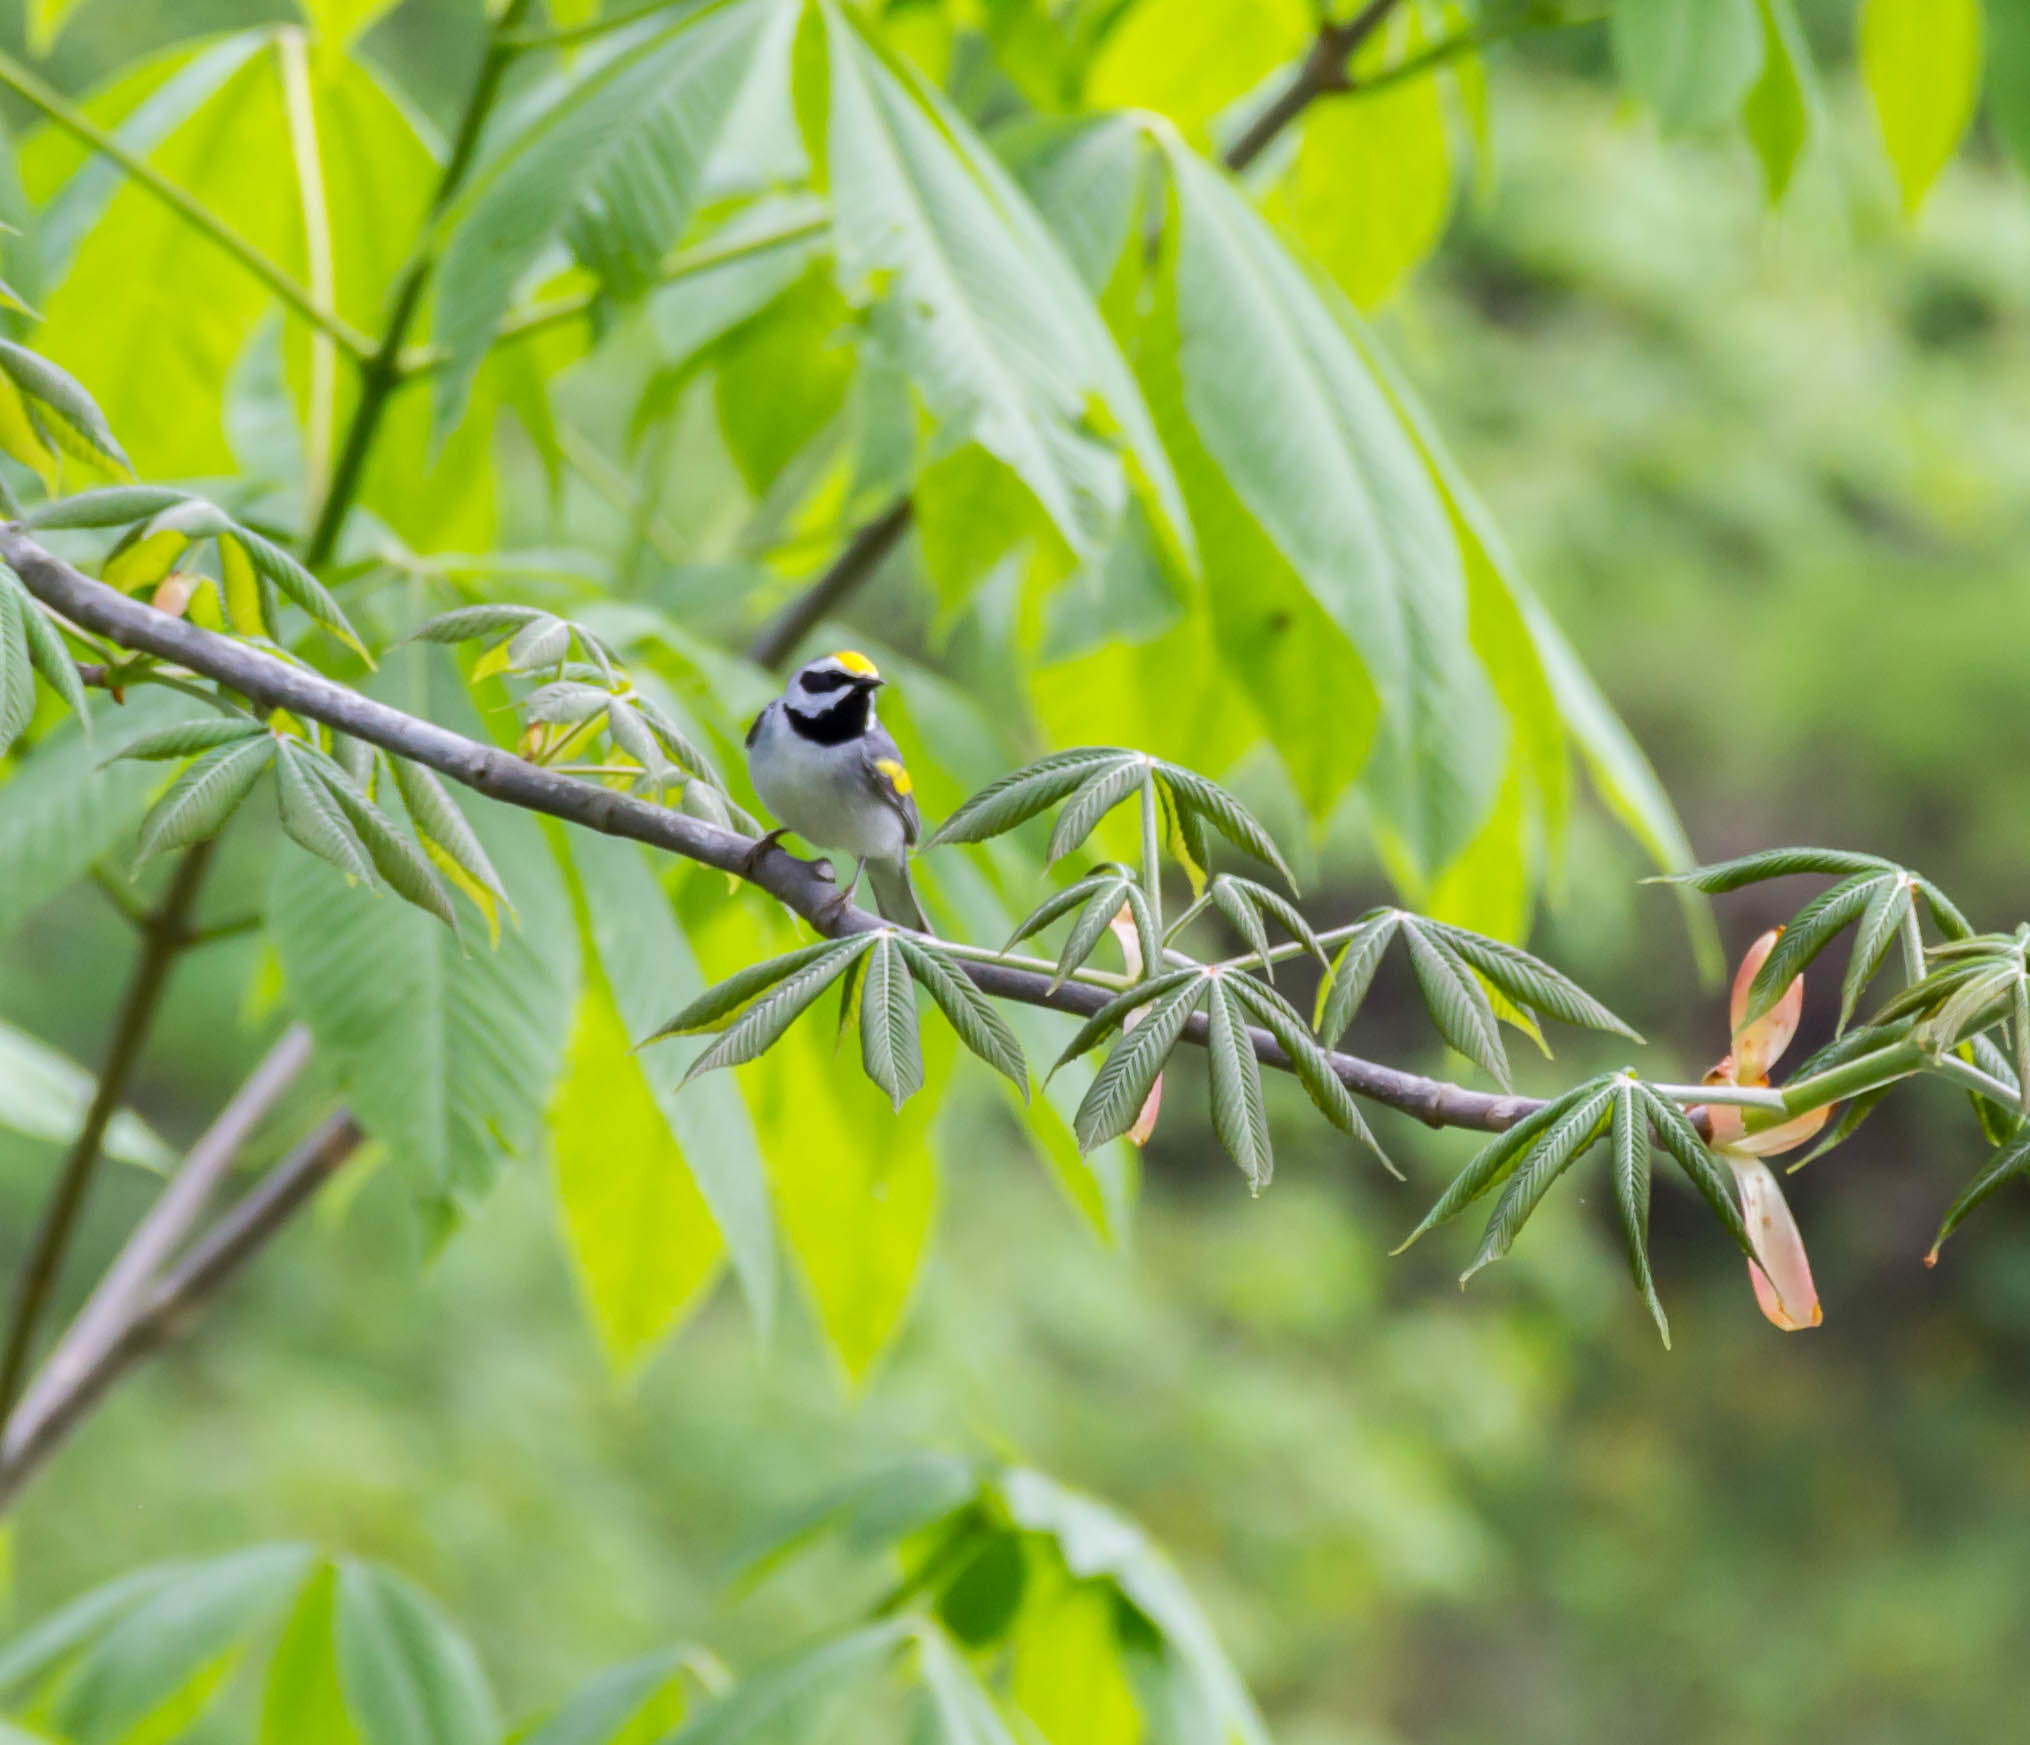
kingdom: Animalia
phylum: Chordata
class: Aves
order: Passeriformes
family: Parulidae
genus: Vermivora
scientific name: Vermivora chrysoptera
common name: Golden-winged warbler
